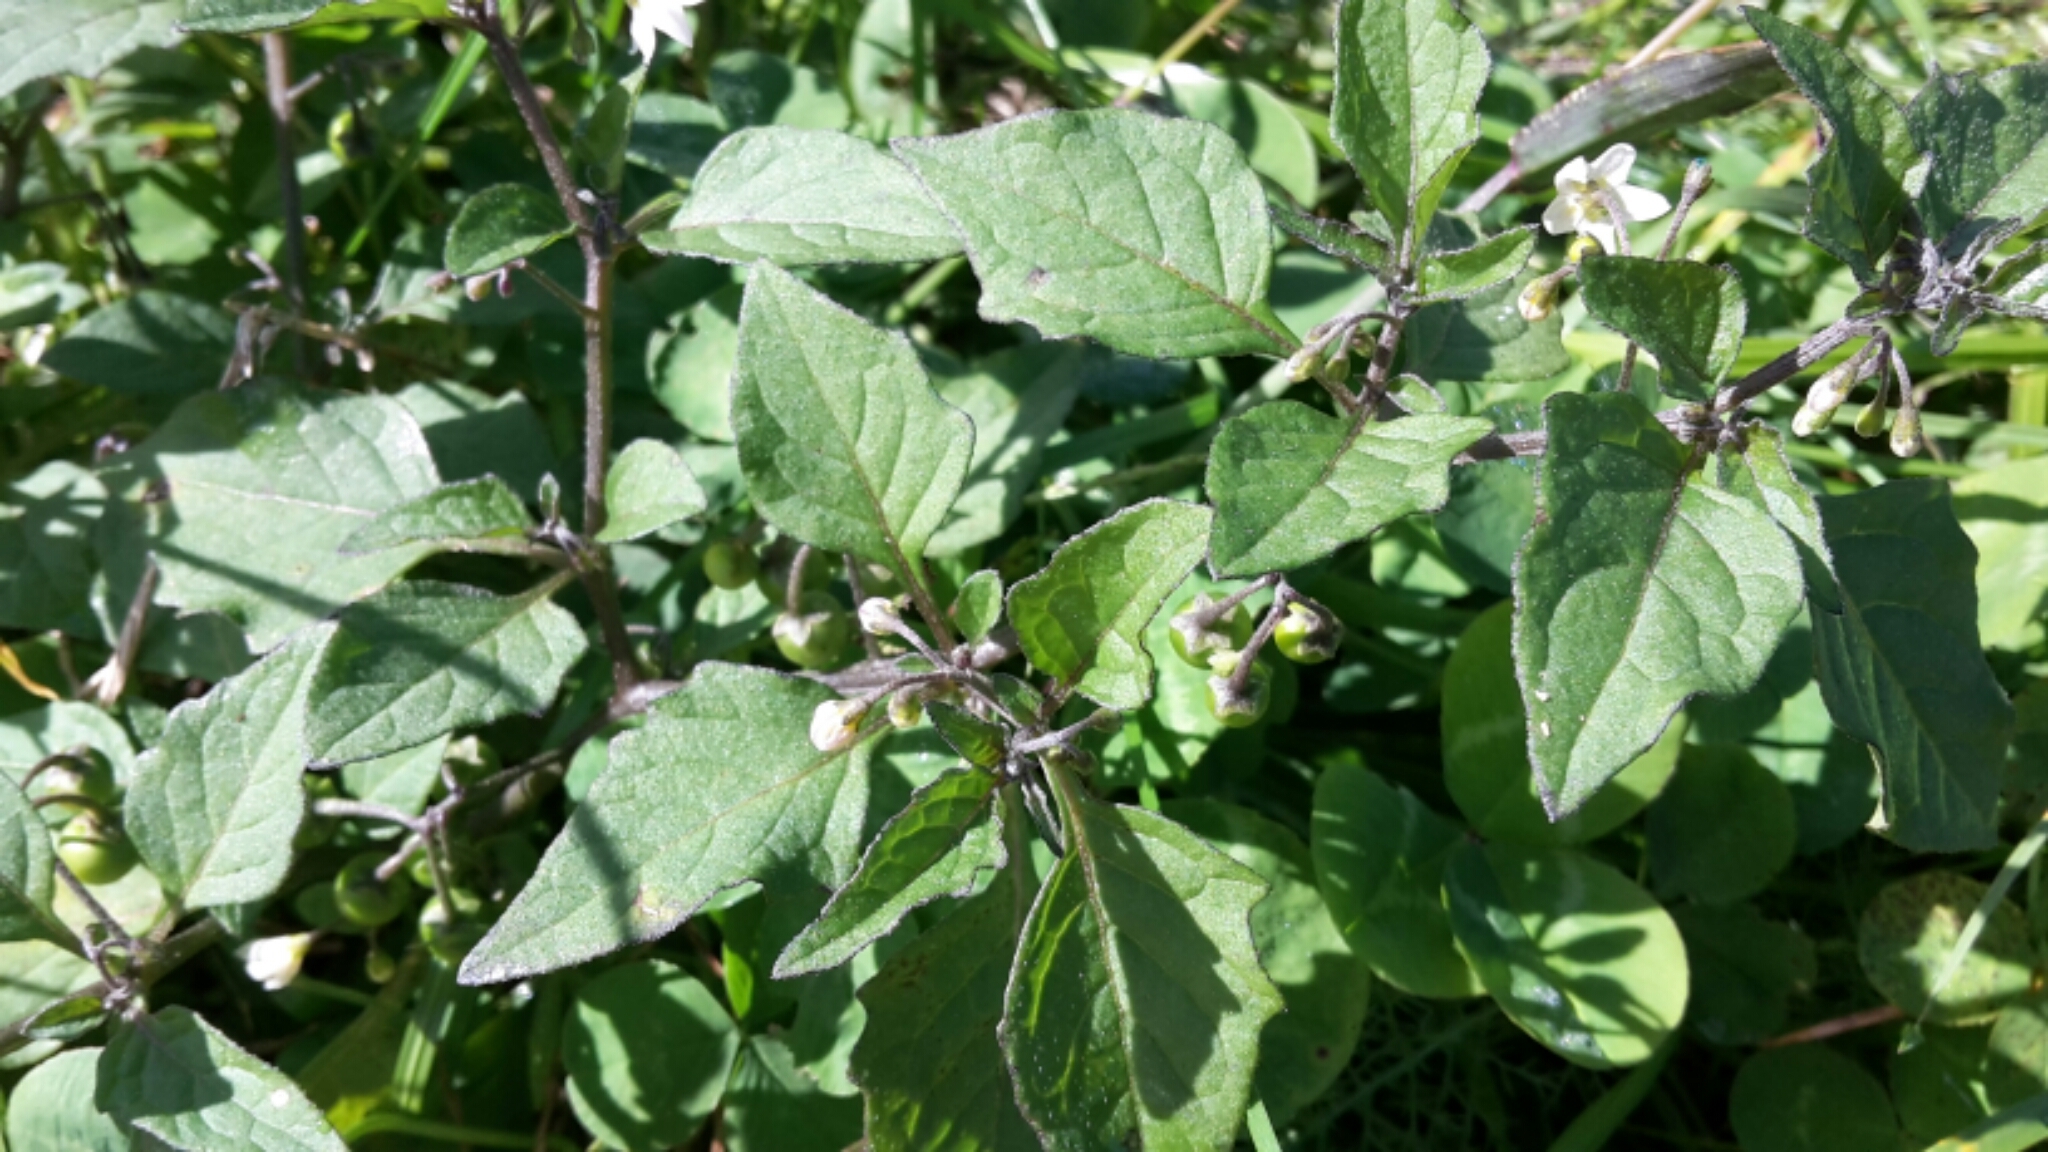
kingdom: Plantae
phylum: Tracheophyta
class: Magnoliopsida
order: Solanales
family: Solanaceae
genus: Solanum
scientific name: Solanum nigrum
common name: Black nightshade
